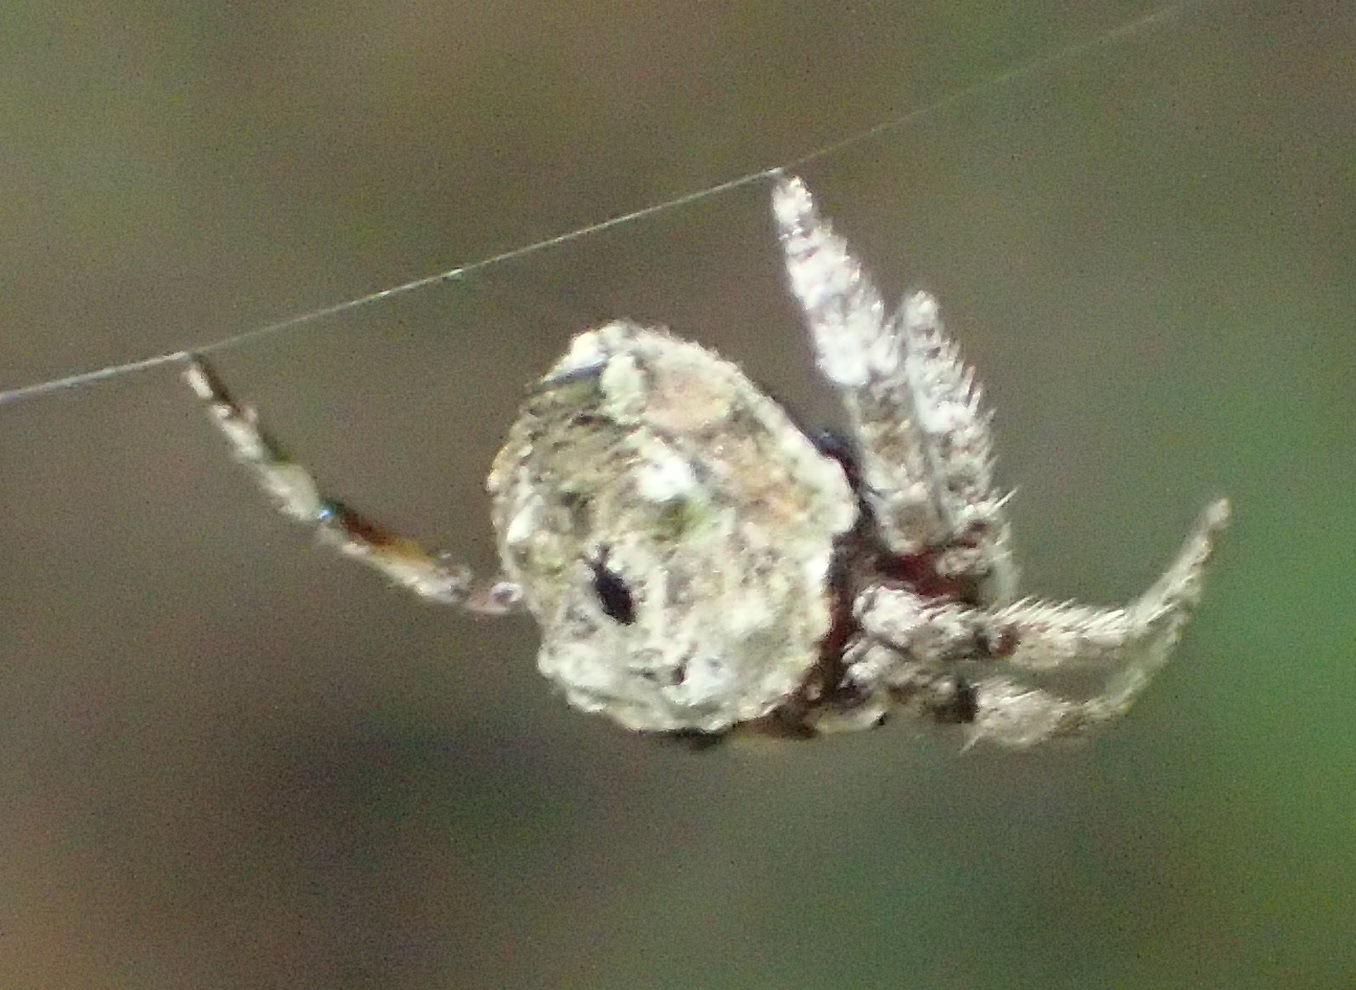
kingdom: Animalia
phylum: Arthropoda
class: Arachnida
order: Araneae
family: Araneidae
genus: Caerostris
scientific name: Caerostris sexcuspidata
